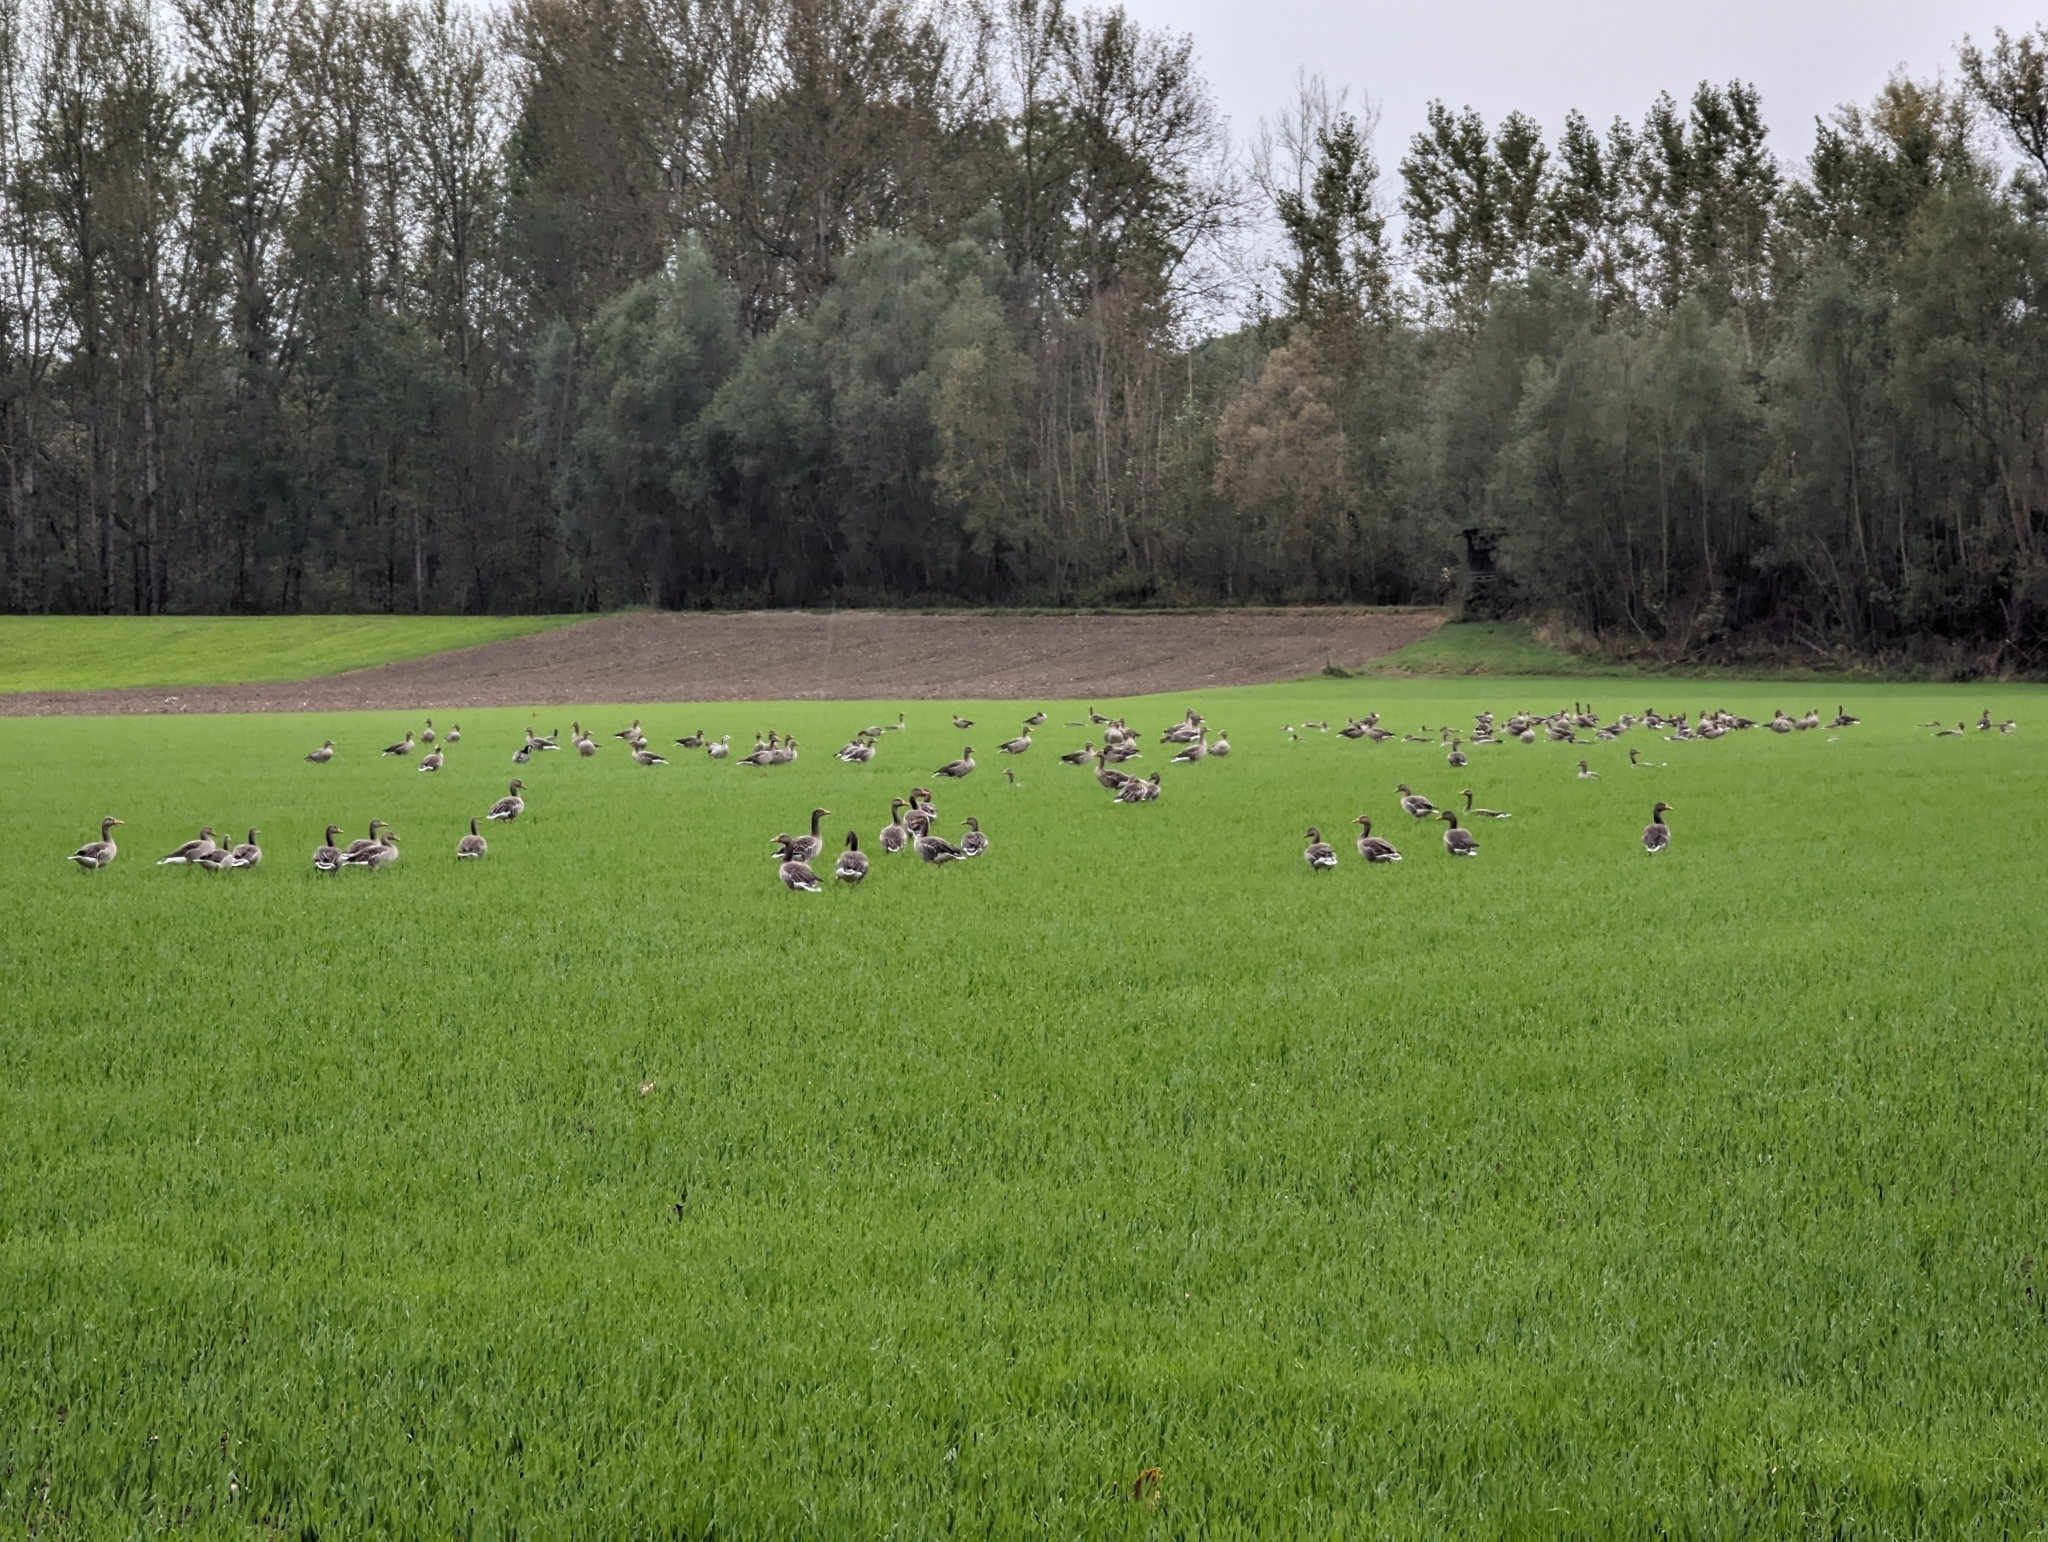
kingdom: Animalia
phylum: Chordata
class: Aves
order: Anseriformes
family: Anatidae
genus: Anser
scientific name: Anser anser
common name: Greylag goose
